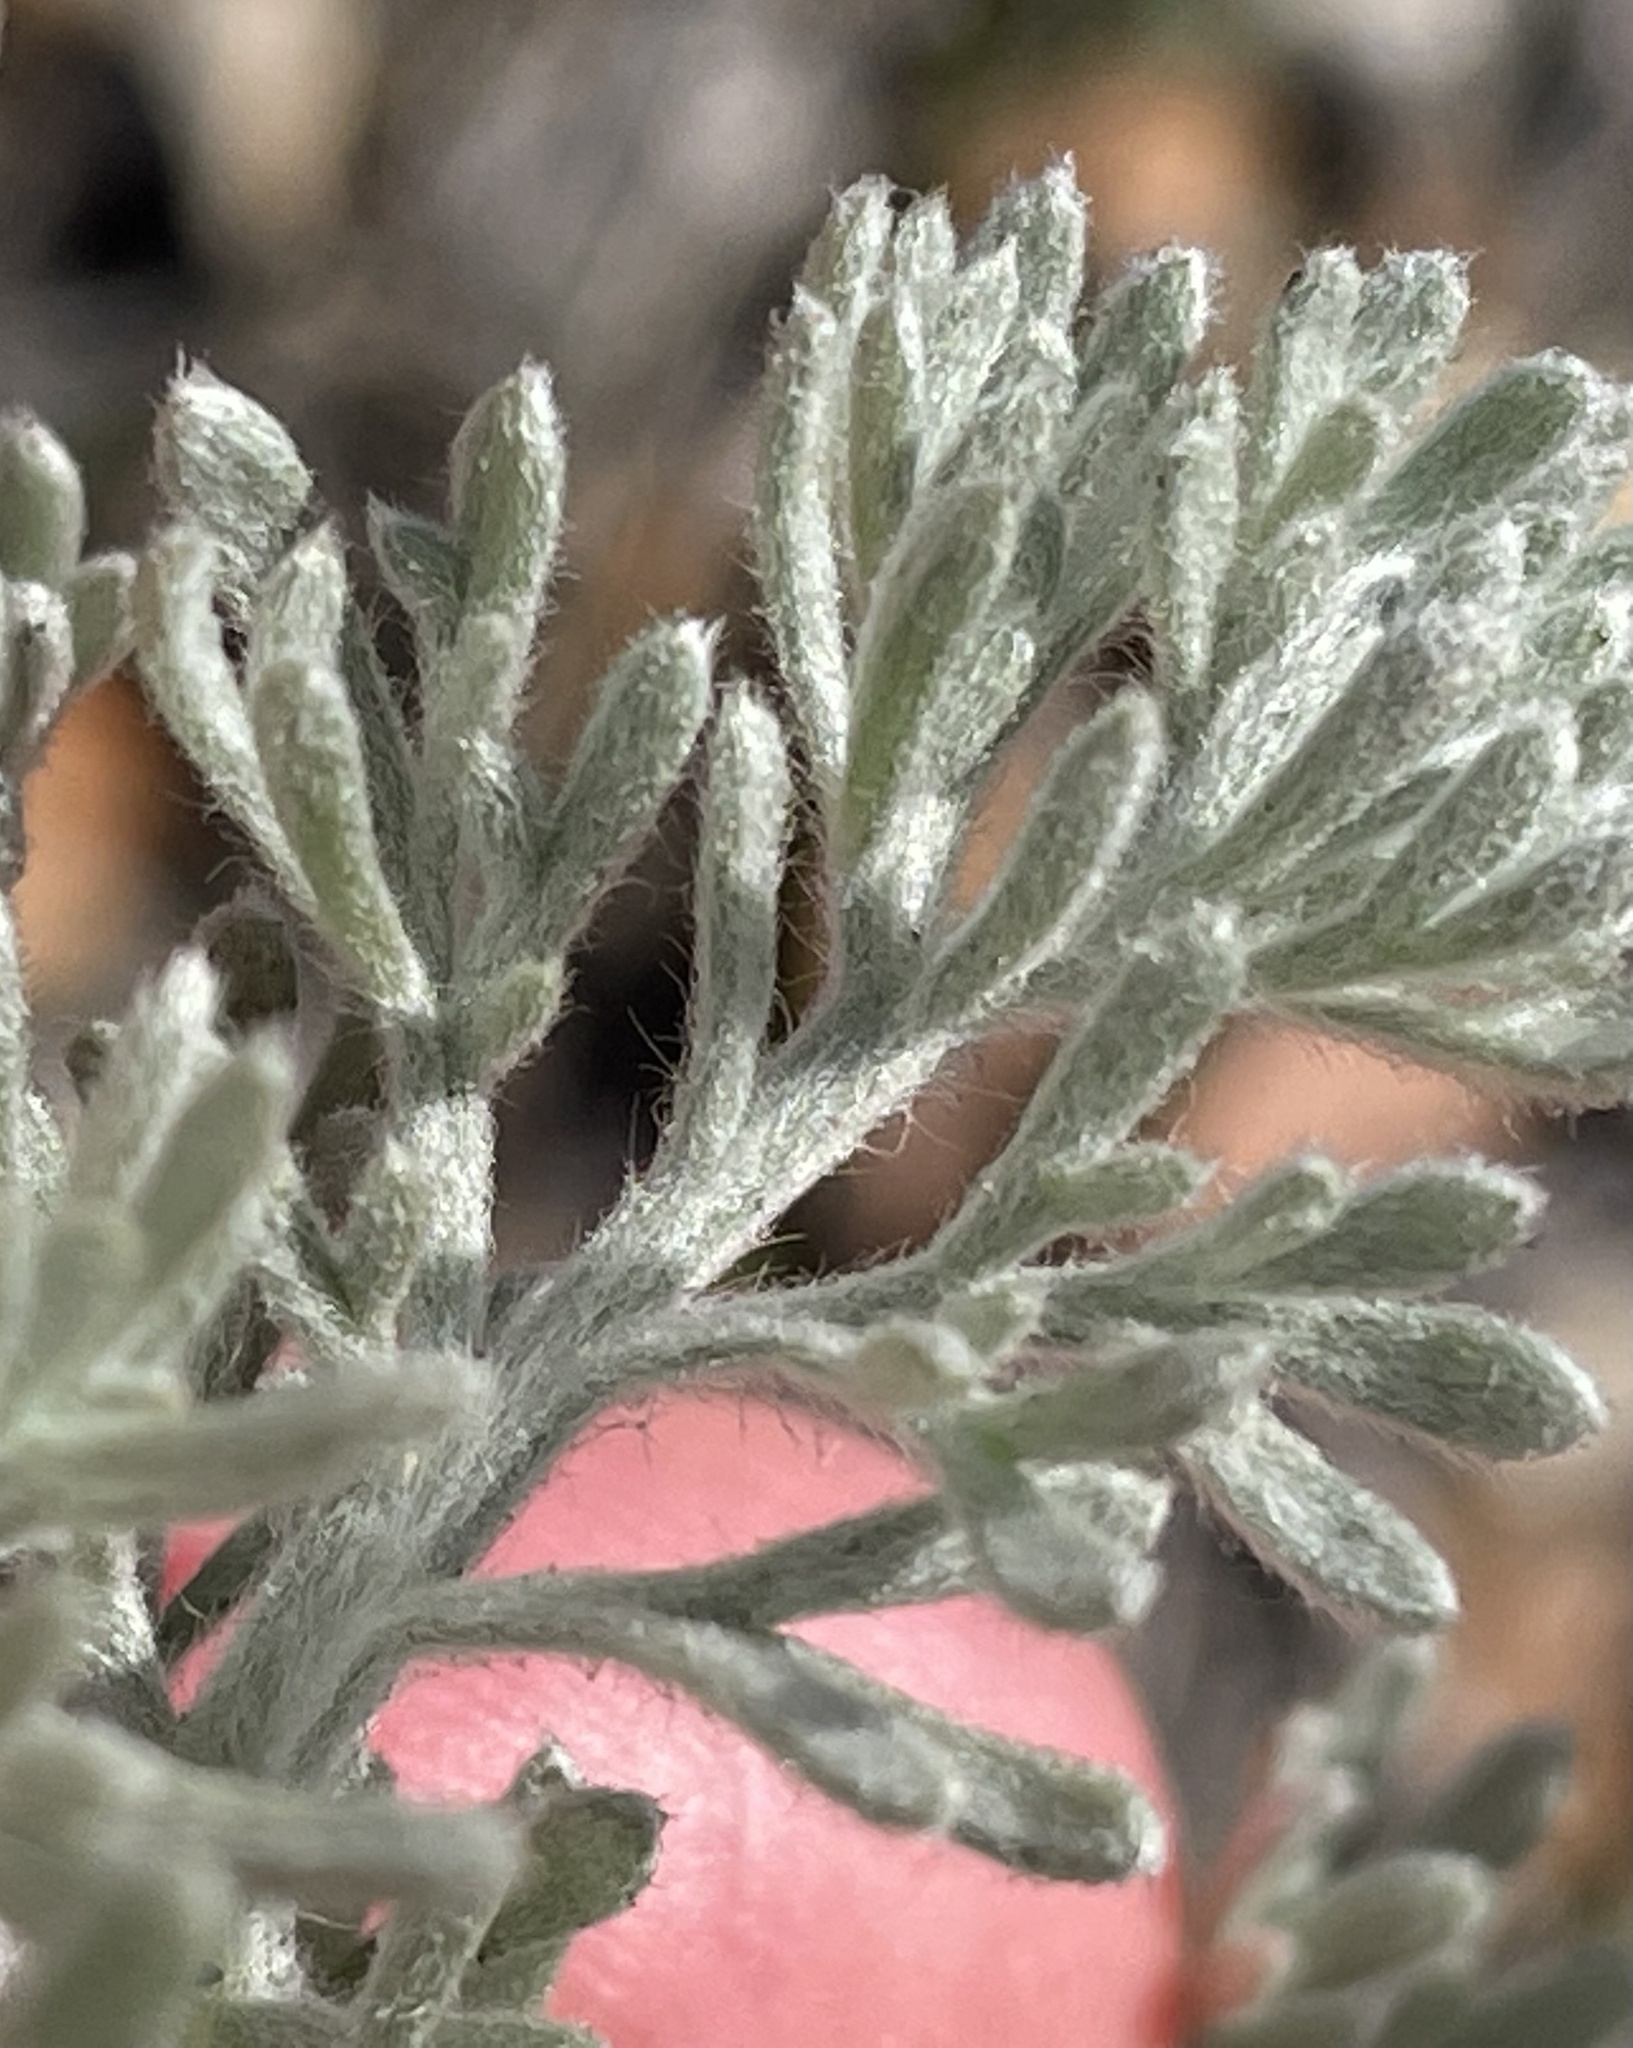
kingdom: Plantae
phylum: Tracheophyta
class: Magnoliopsida
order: Asterales
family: Asteraceae
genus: Artemisia
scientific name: Artemisia pycnocephala
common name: Coastal sagewort
